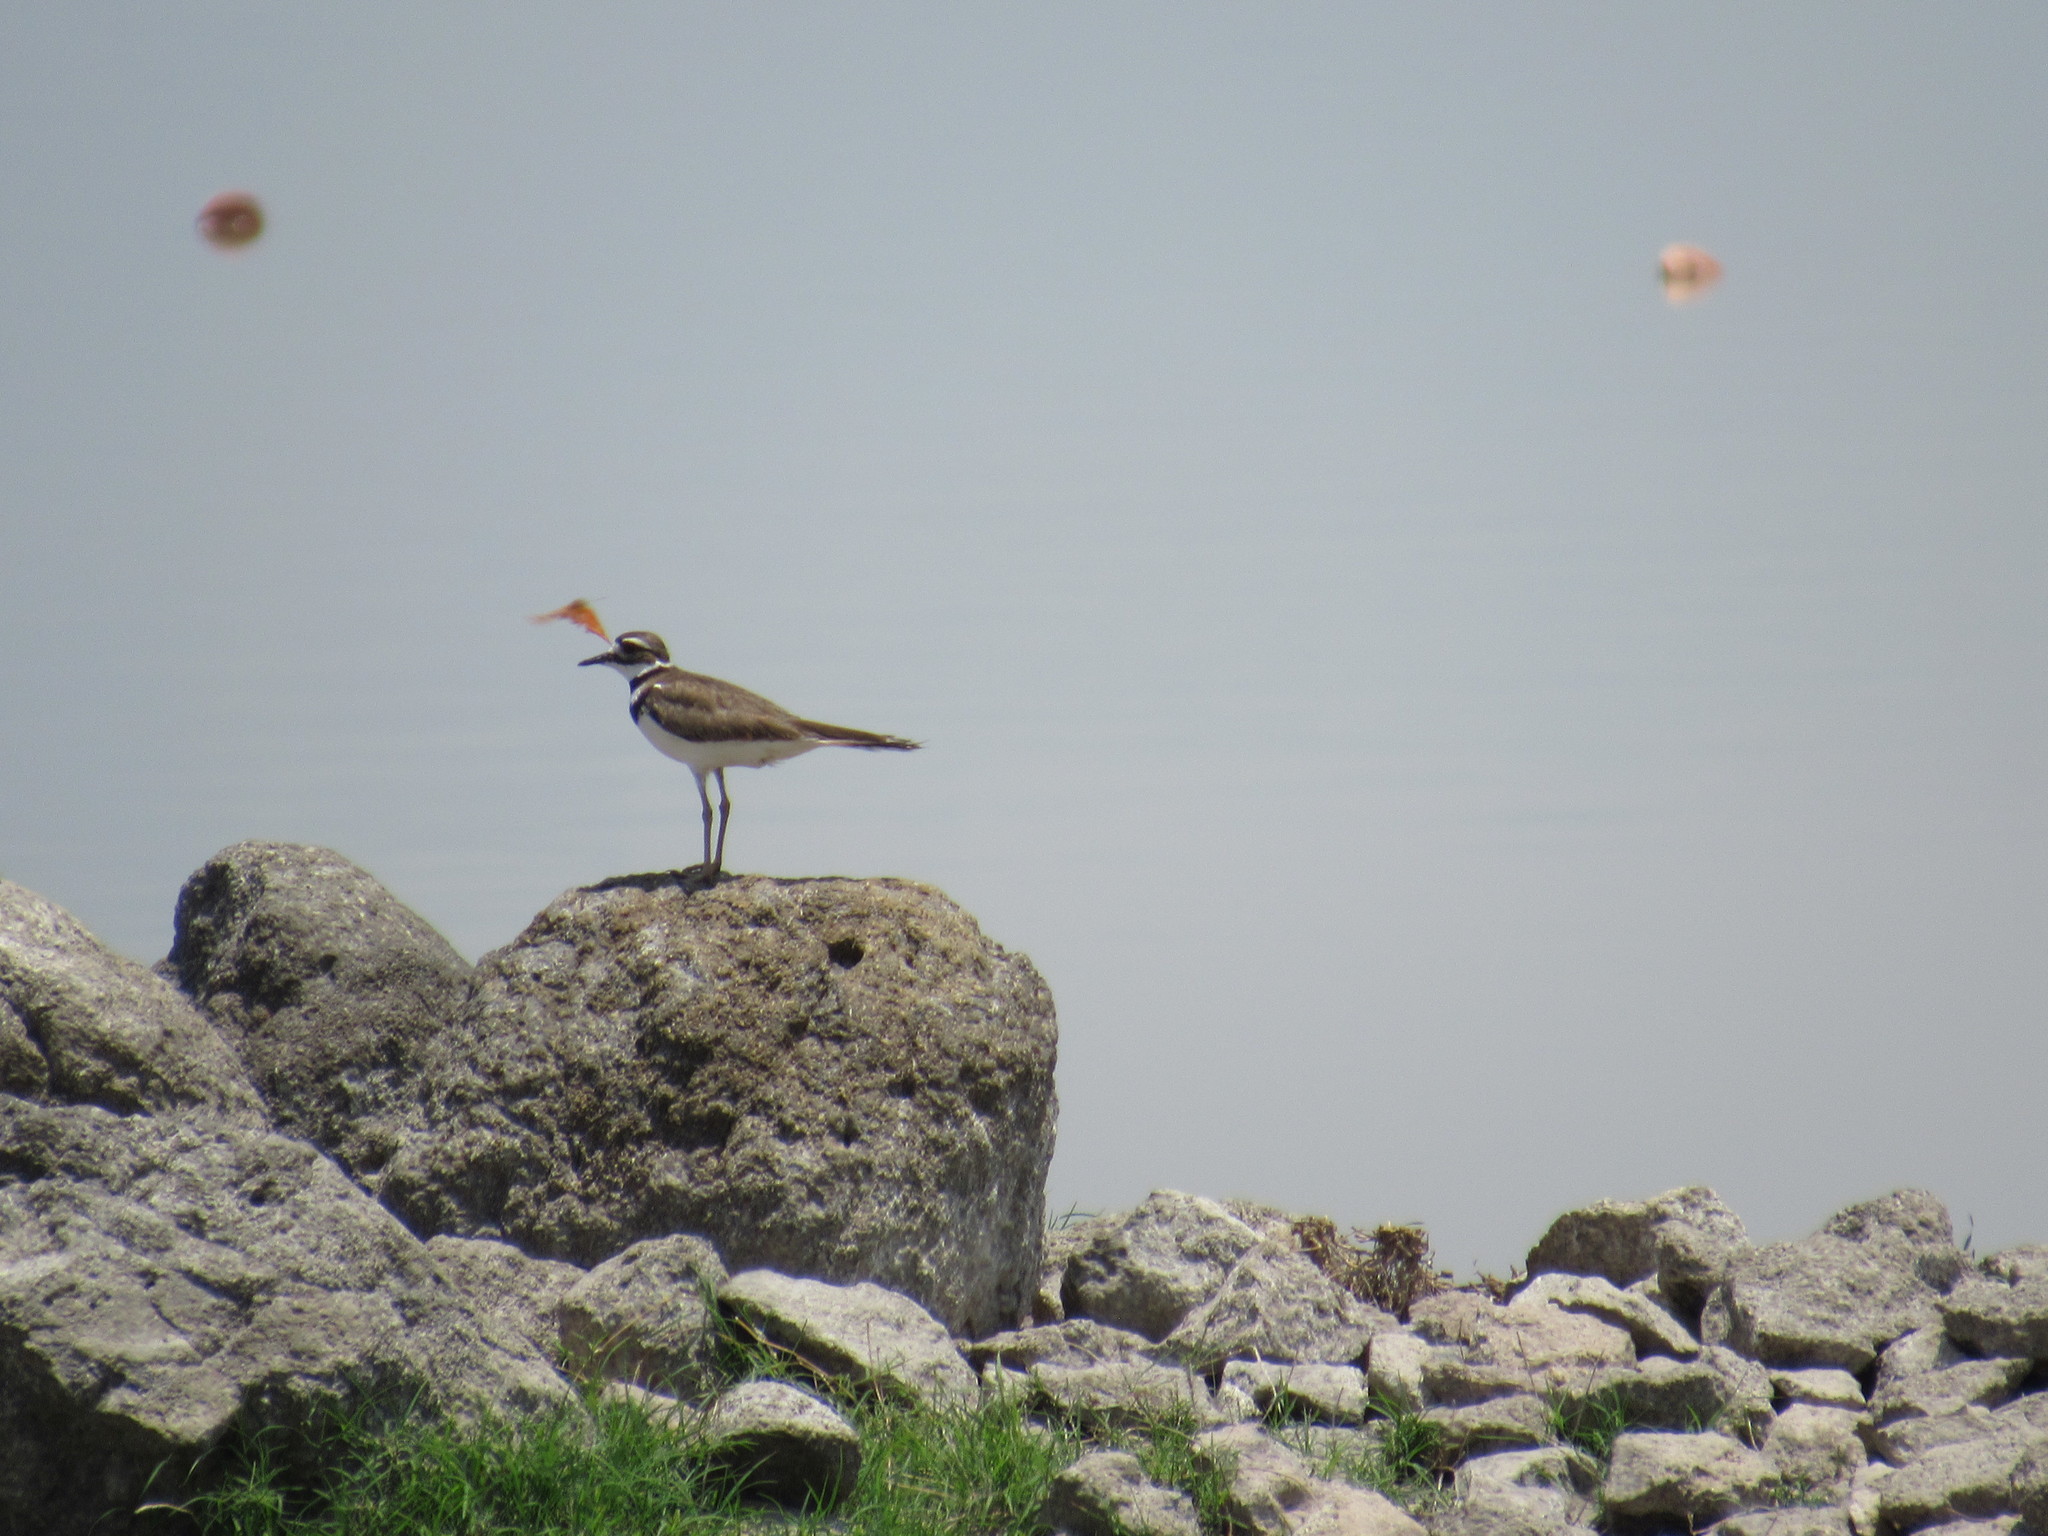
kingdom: Animalia
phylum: Chordata
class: Aves
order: Charadriiformes
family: Charadriidae
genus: Charadrius
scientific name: Charadrius vociferus
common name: Killdeer
